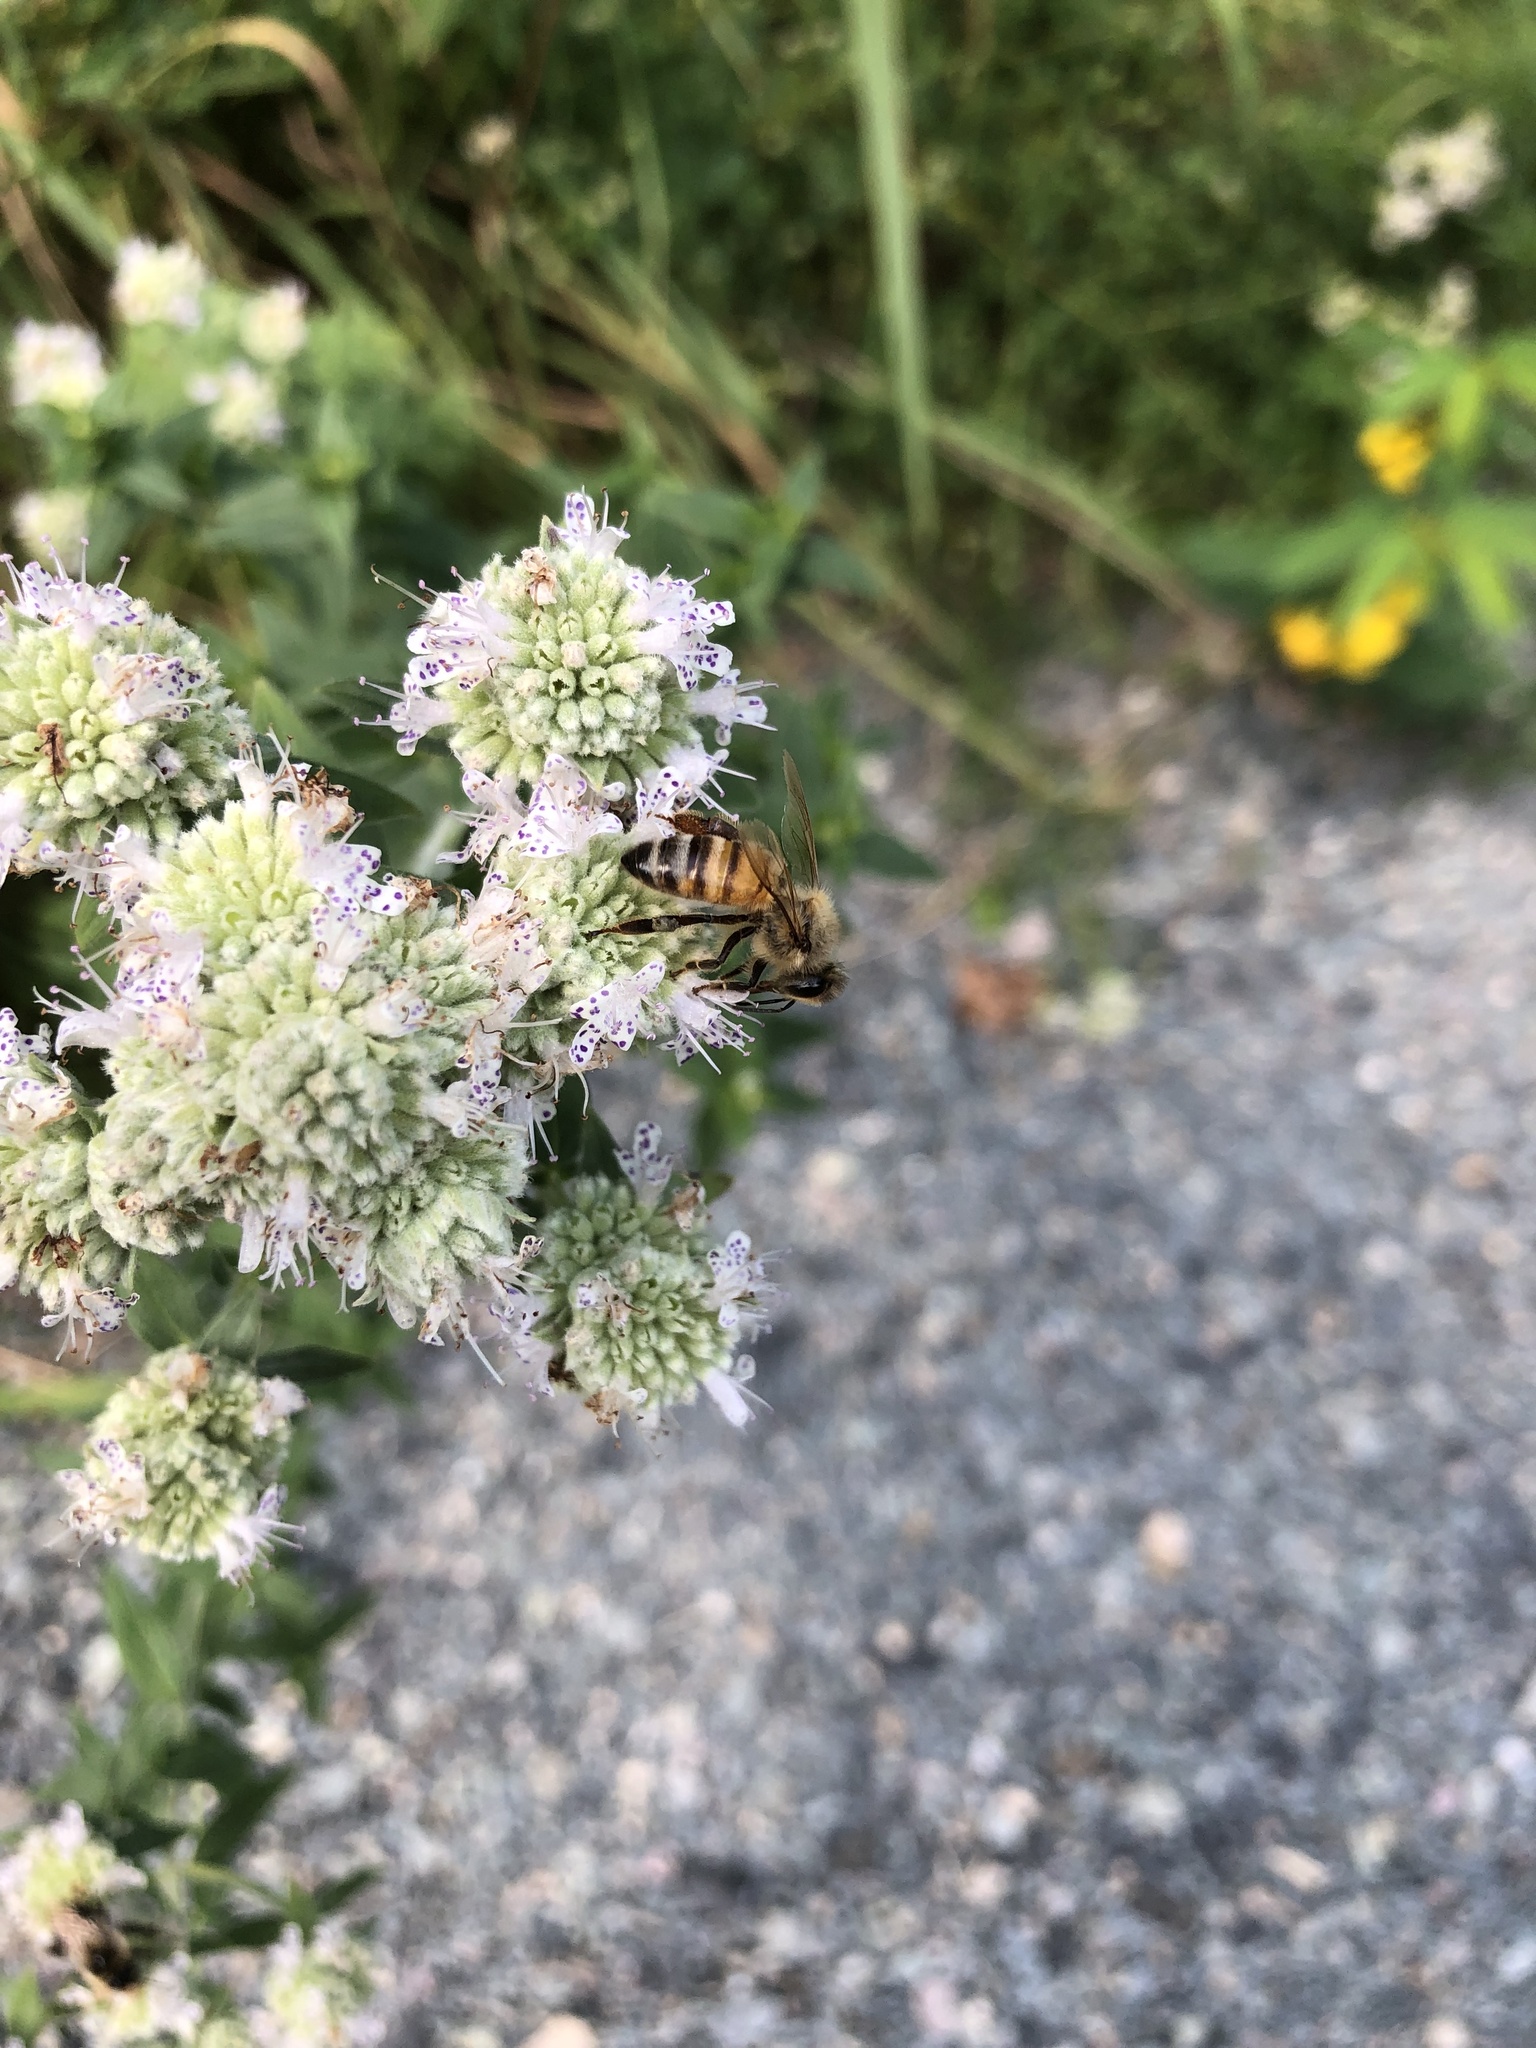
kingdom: Animalia
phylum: Arthropoda
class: Insecta
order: Hymenoptera
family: Apidae
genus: Apis
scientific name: Apis mellifera
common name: Honey bee
